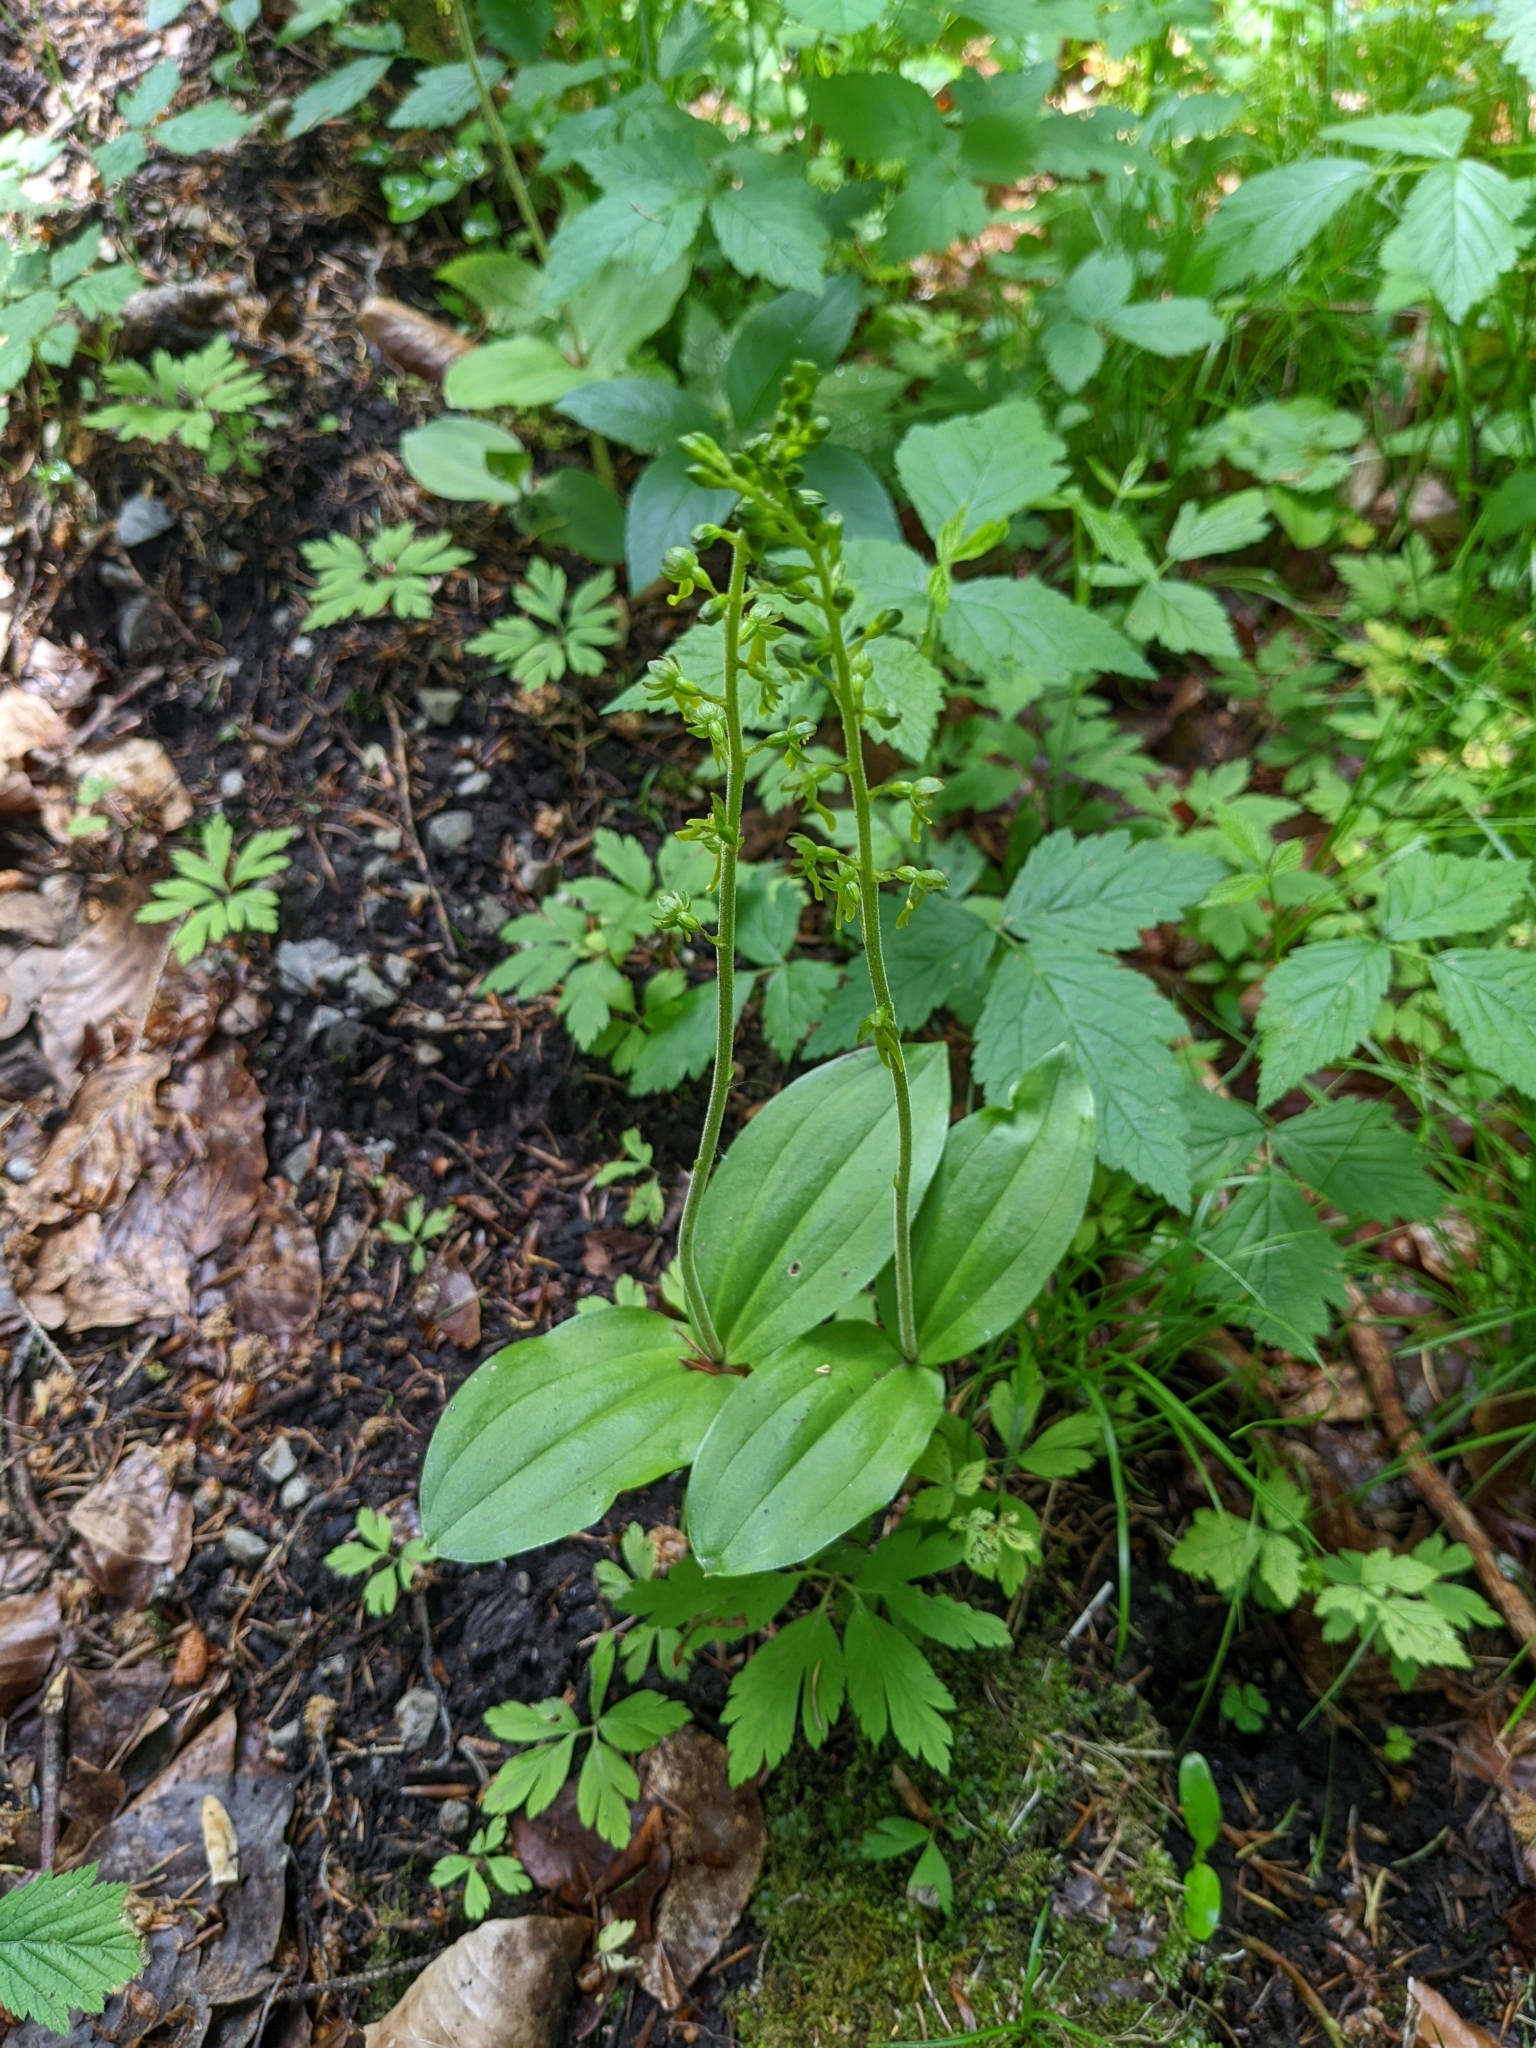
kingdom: Plantae
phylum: Tracheophyta
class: Liliopsida
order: Asparagales
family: Orchidaceae
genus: Neottia
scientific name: Neottia ovata
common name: Common twayblade
